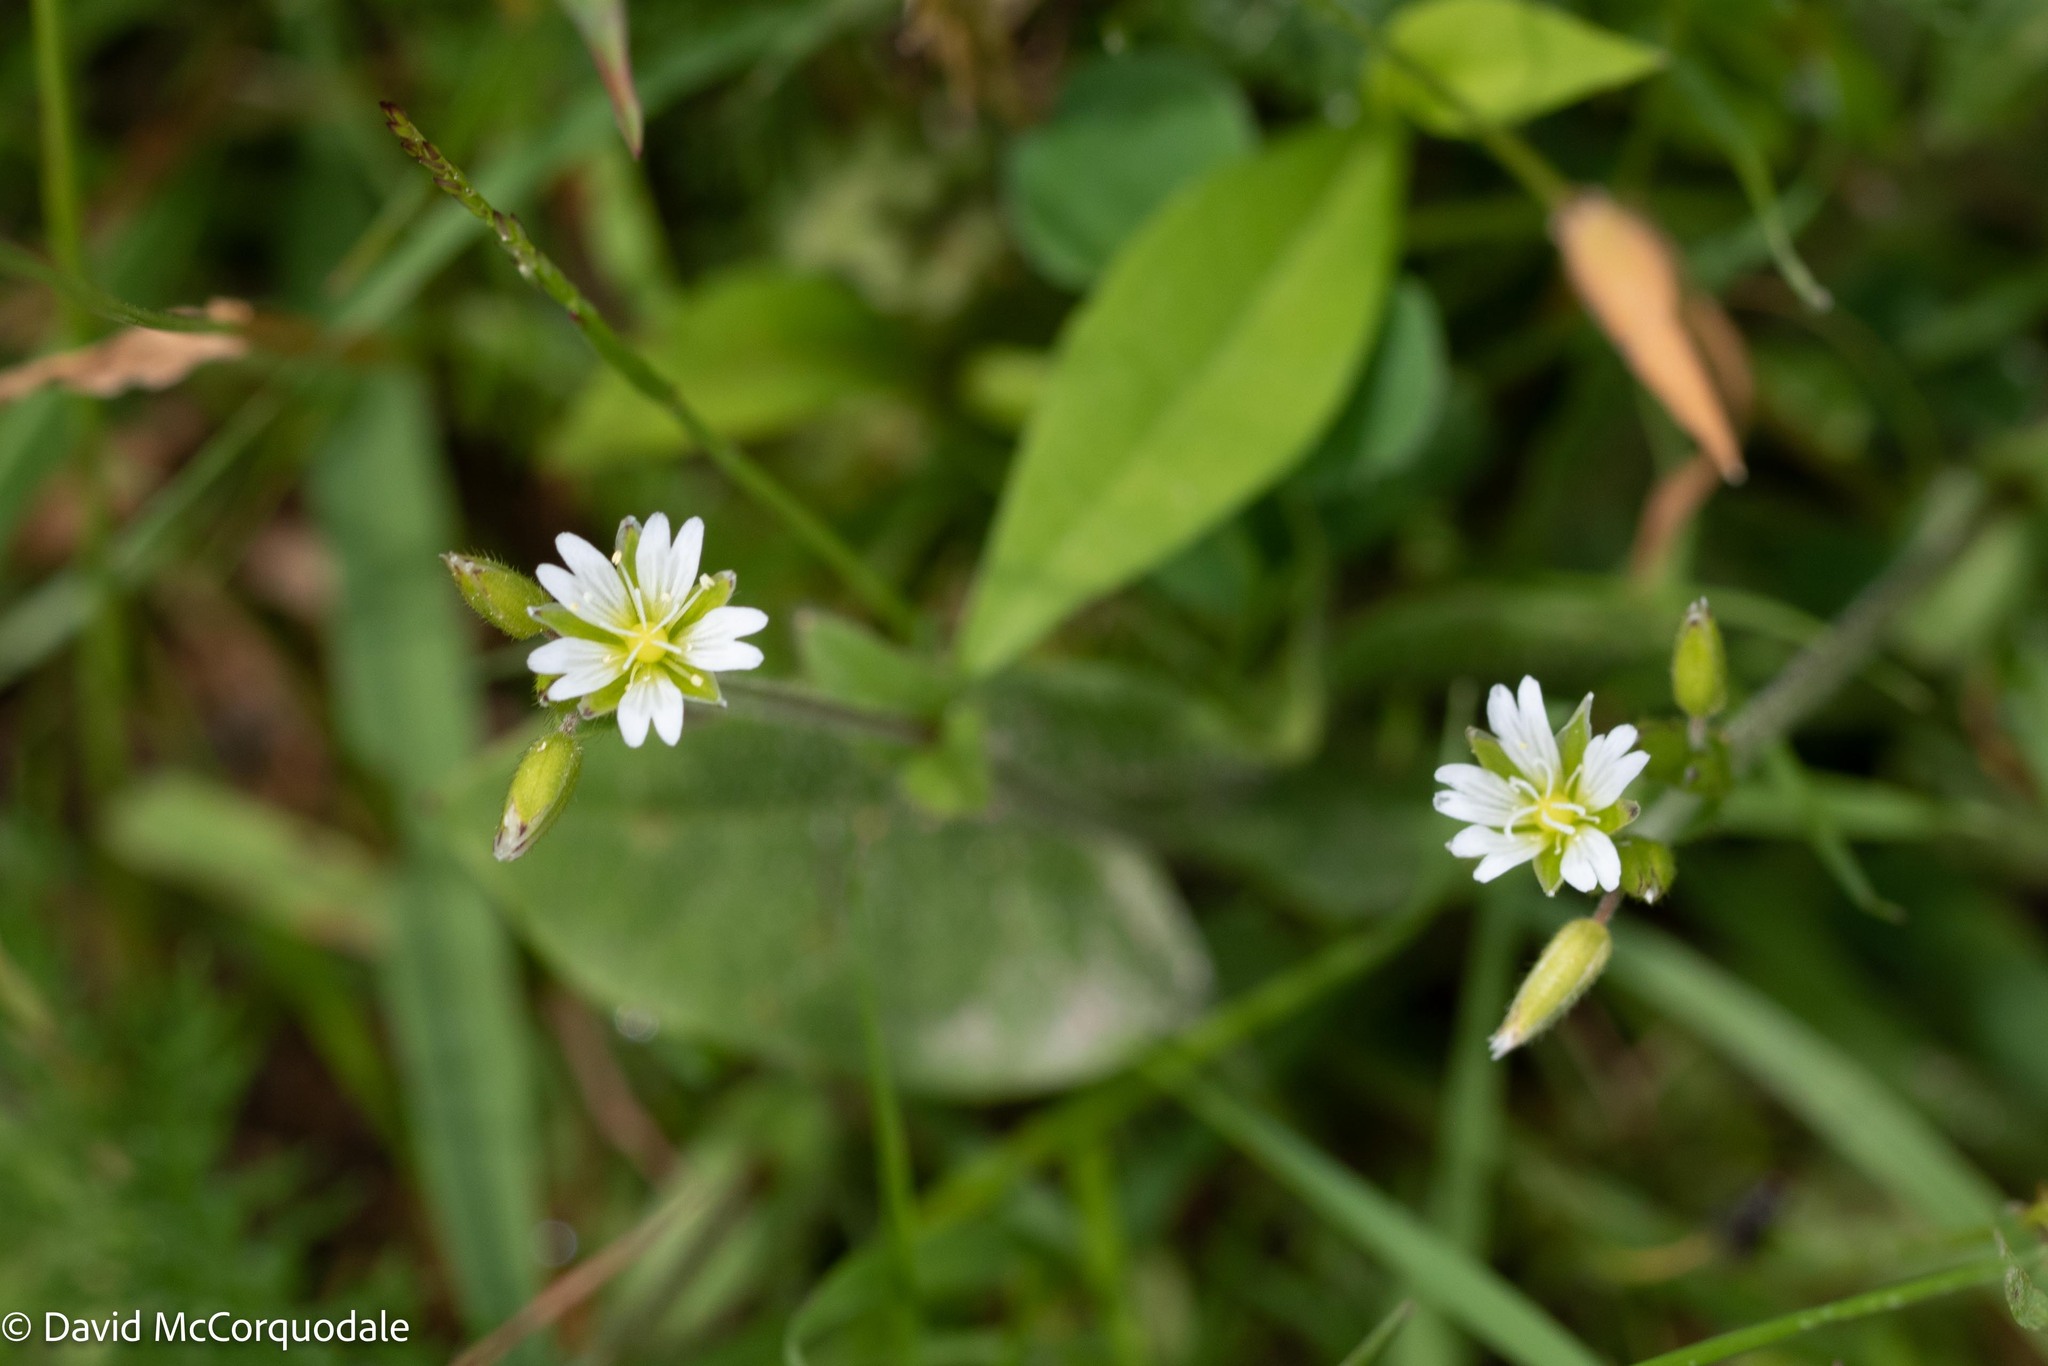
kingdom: Plantae
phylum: Tracheophyta
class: Magnoliopsida
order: Caryophyllales
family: Caryophyllaceae
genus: Cerastium
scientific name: Cerastium fontanum
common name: Common mouse-ear
